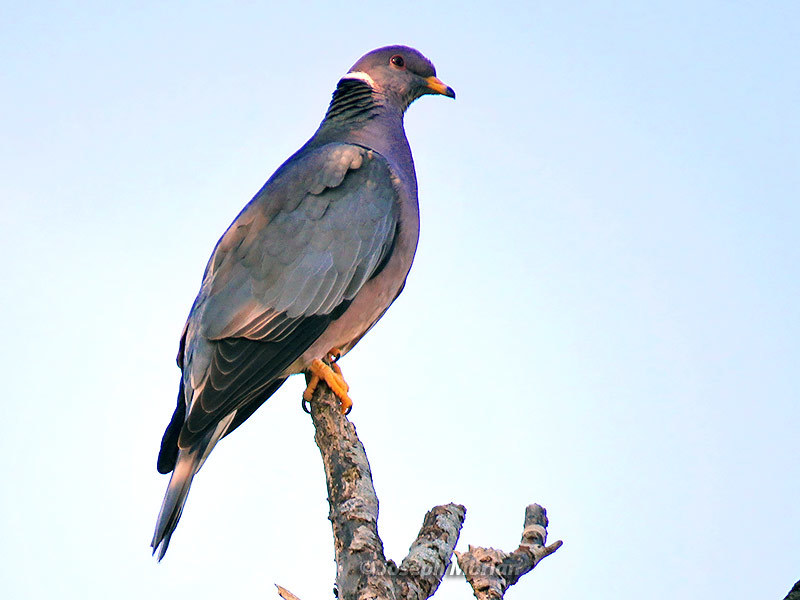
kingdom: Animalia
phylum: Chordata
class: Aves
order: Columbiformes
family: Columbidae
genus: Patagioenas
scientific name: Patagioenas fasciata
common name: Band-tailed pigeon
